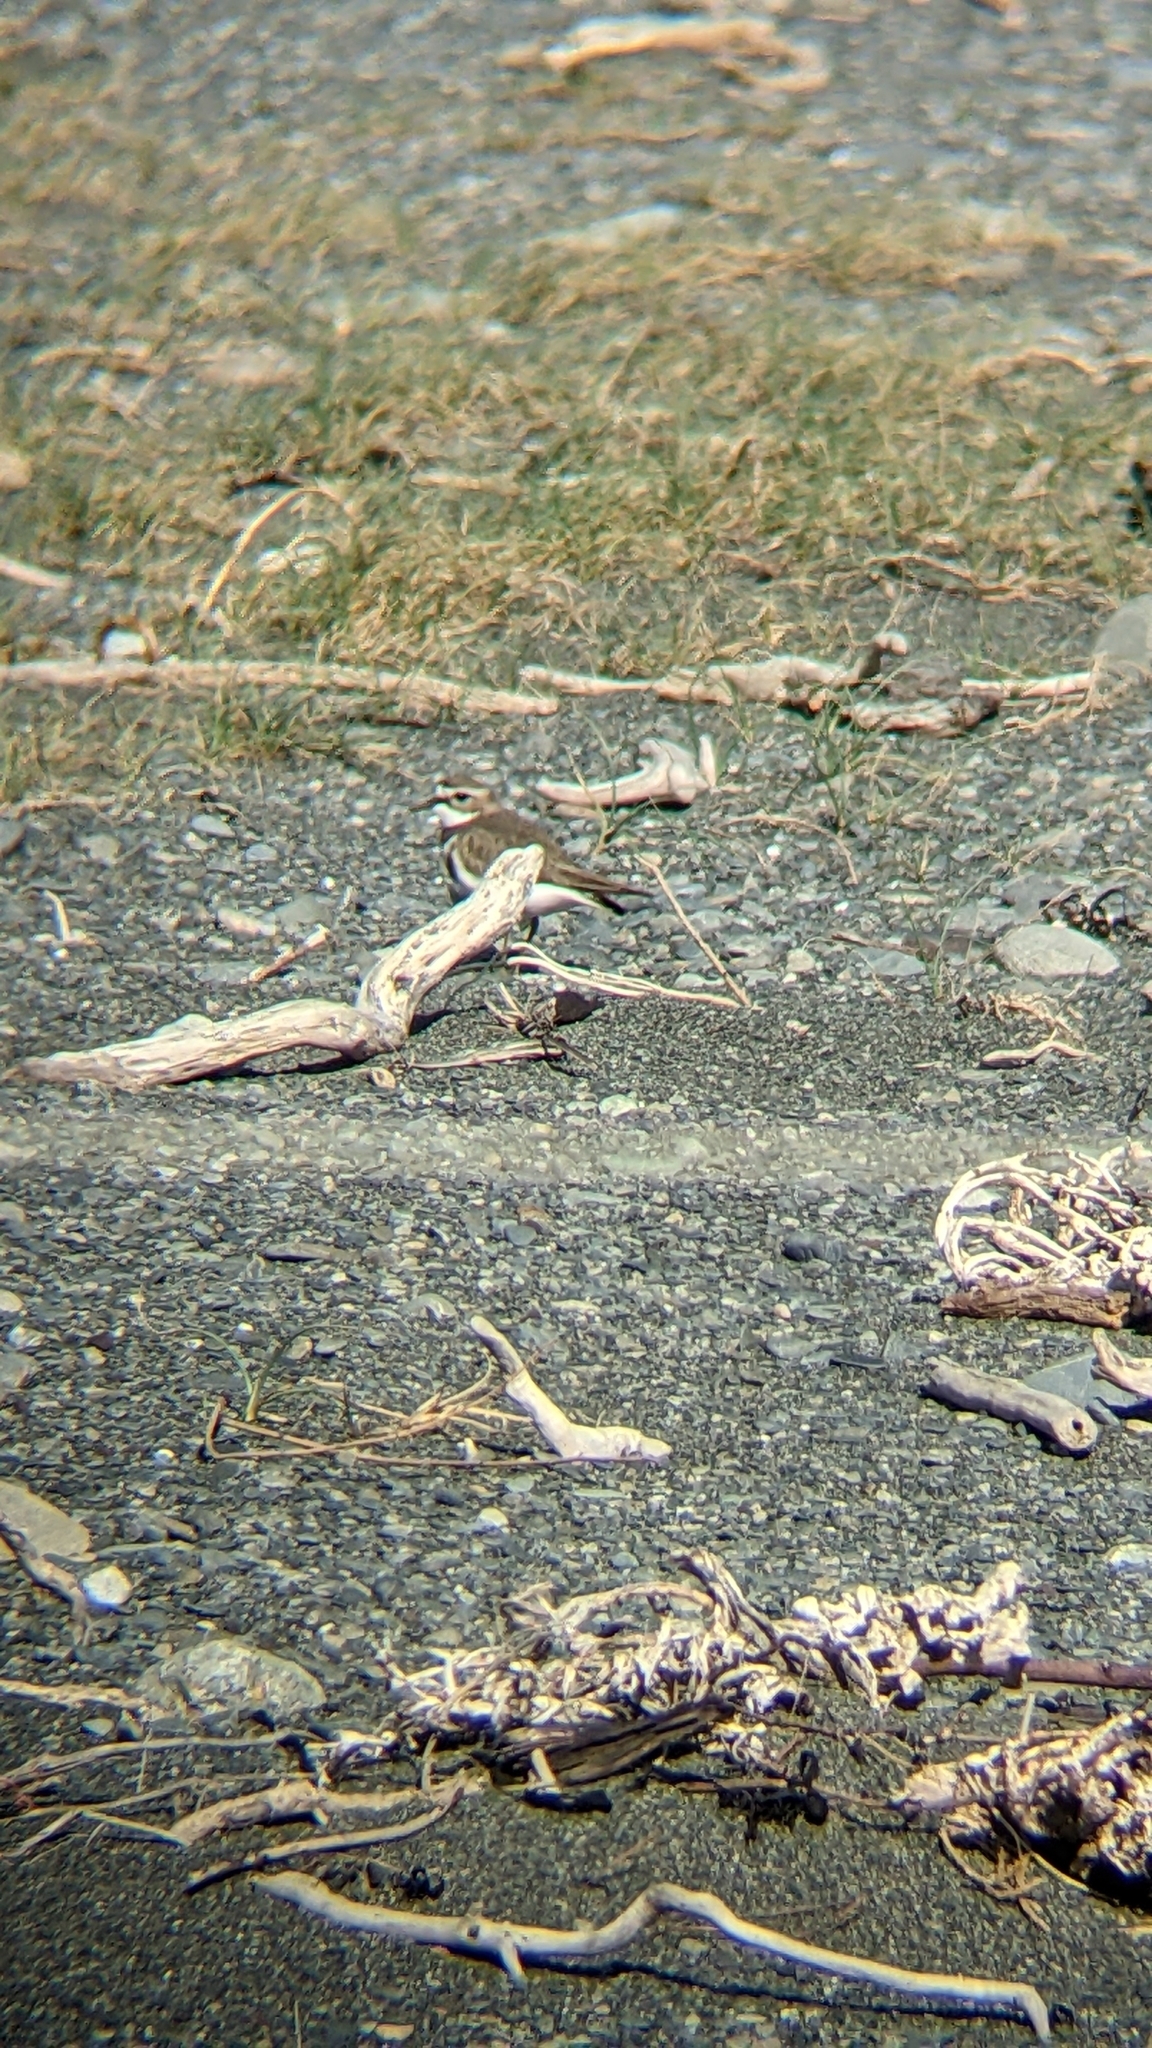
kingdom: Animalia
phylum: Chordata
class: Aves
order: Charadriiformes
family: Charadriidae
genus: Anarhynchus
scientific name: Anarhynchus
